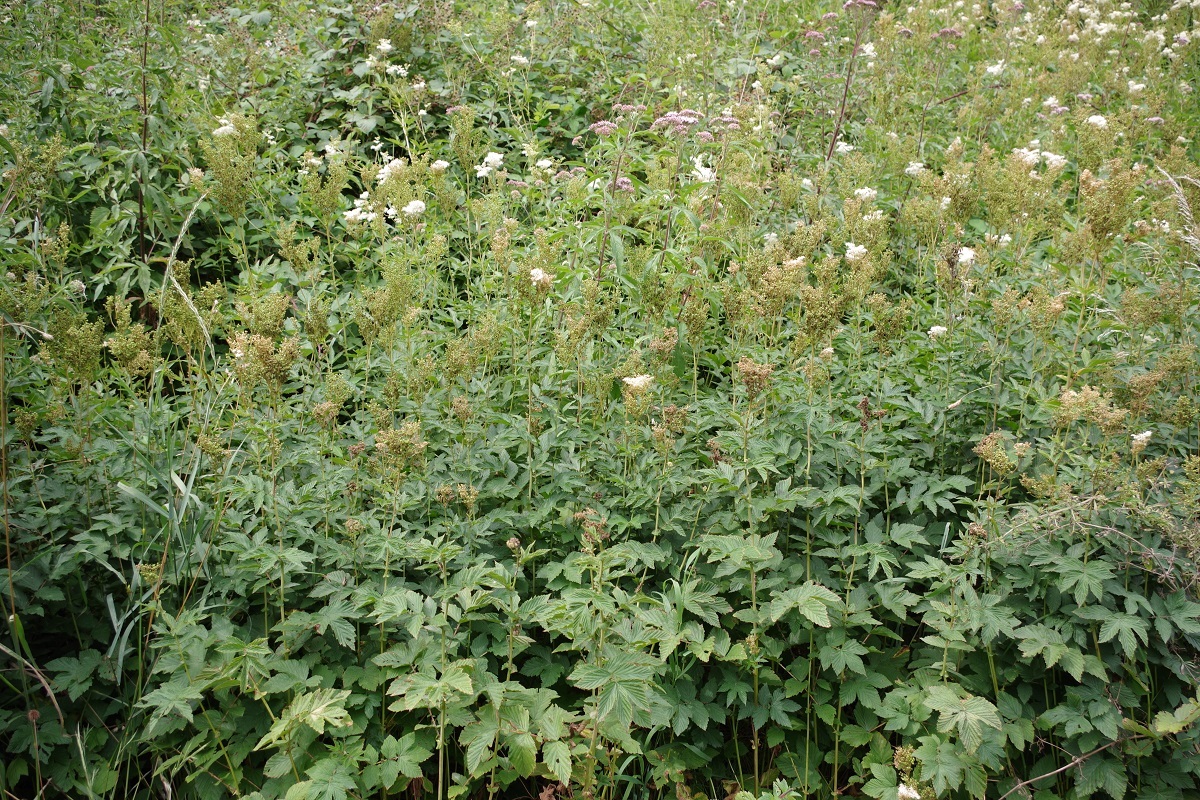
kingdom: Plantae
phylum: Tracheophyta
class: Magnoliopsida
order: Rosales
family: Rosaceae
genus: Filipendula
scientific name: Filipendula ulmaria
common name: Meadowsweet
